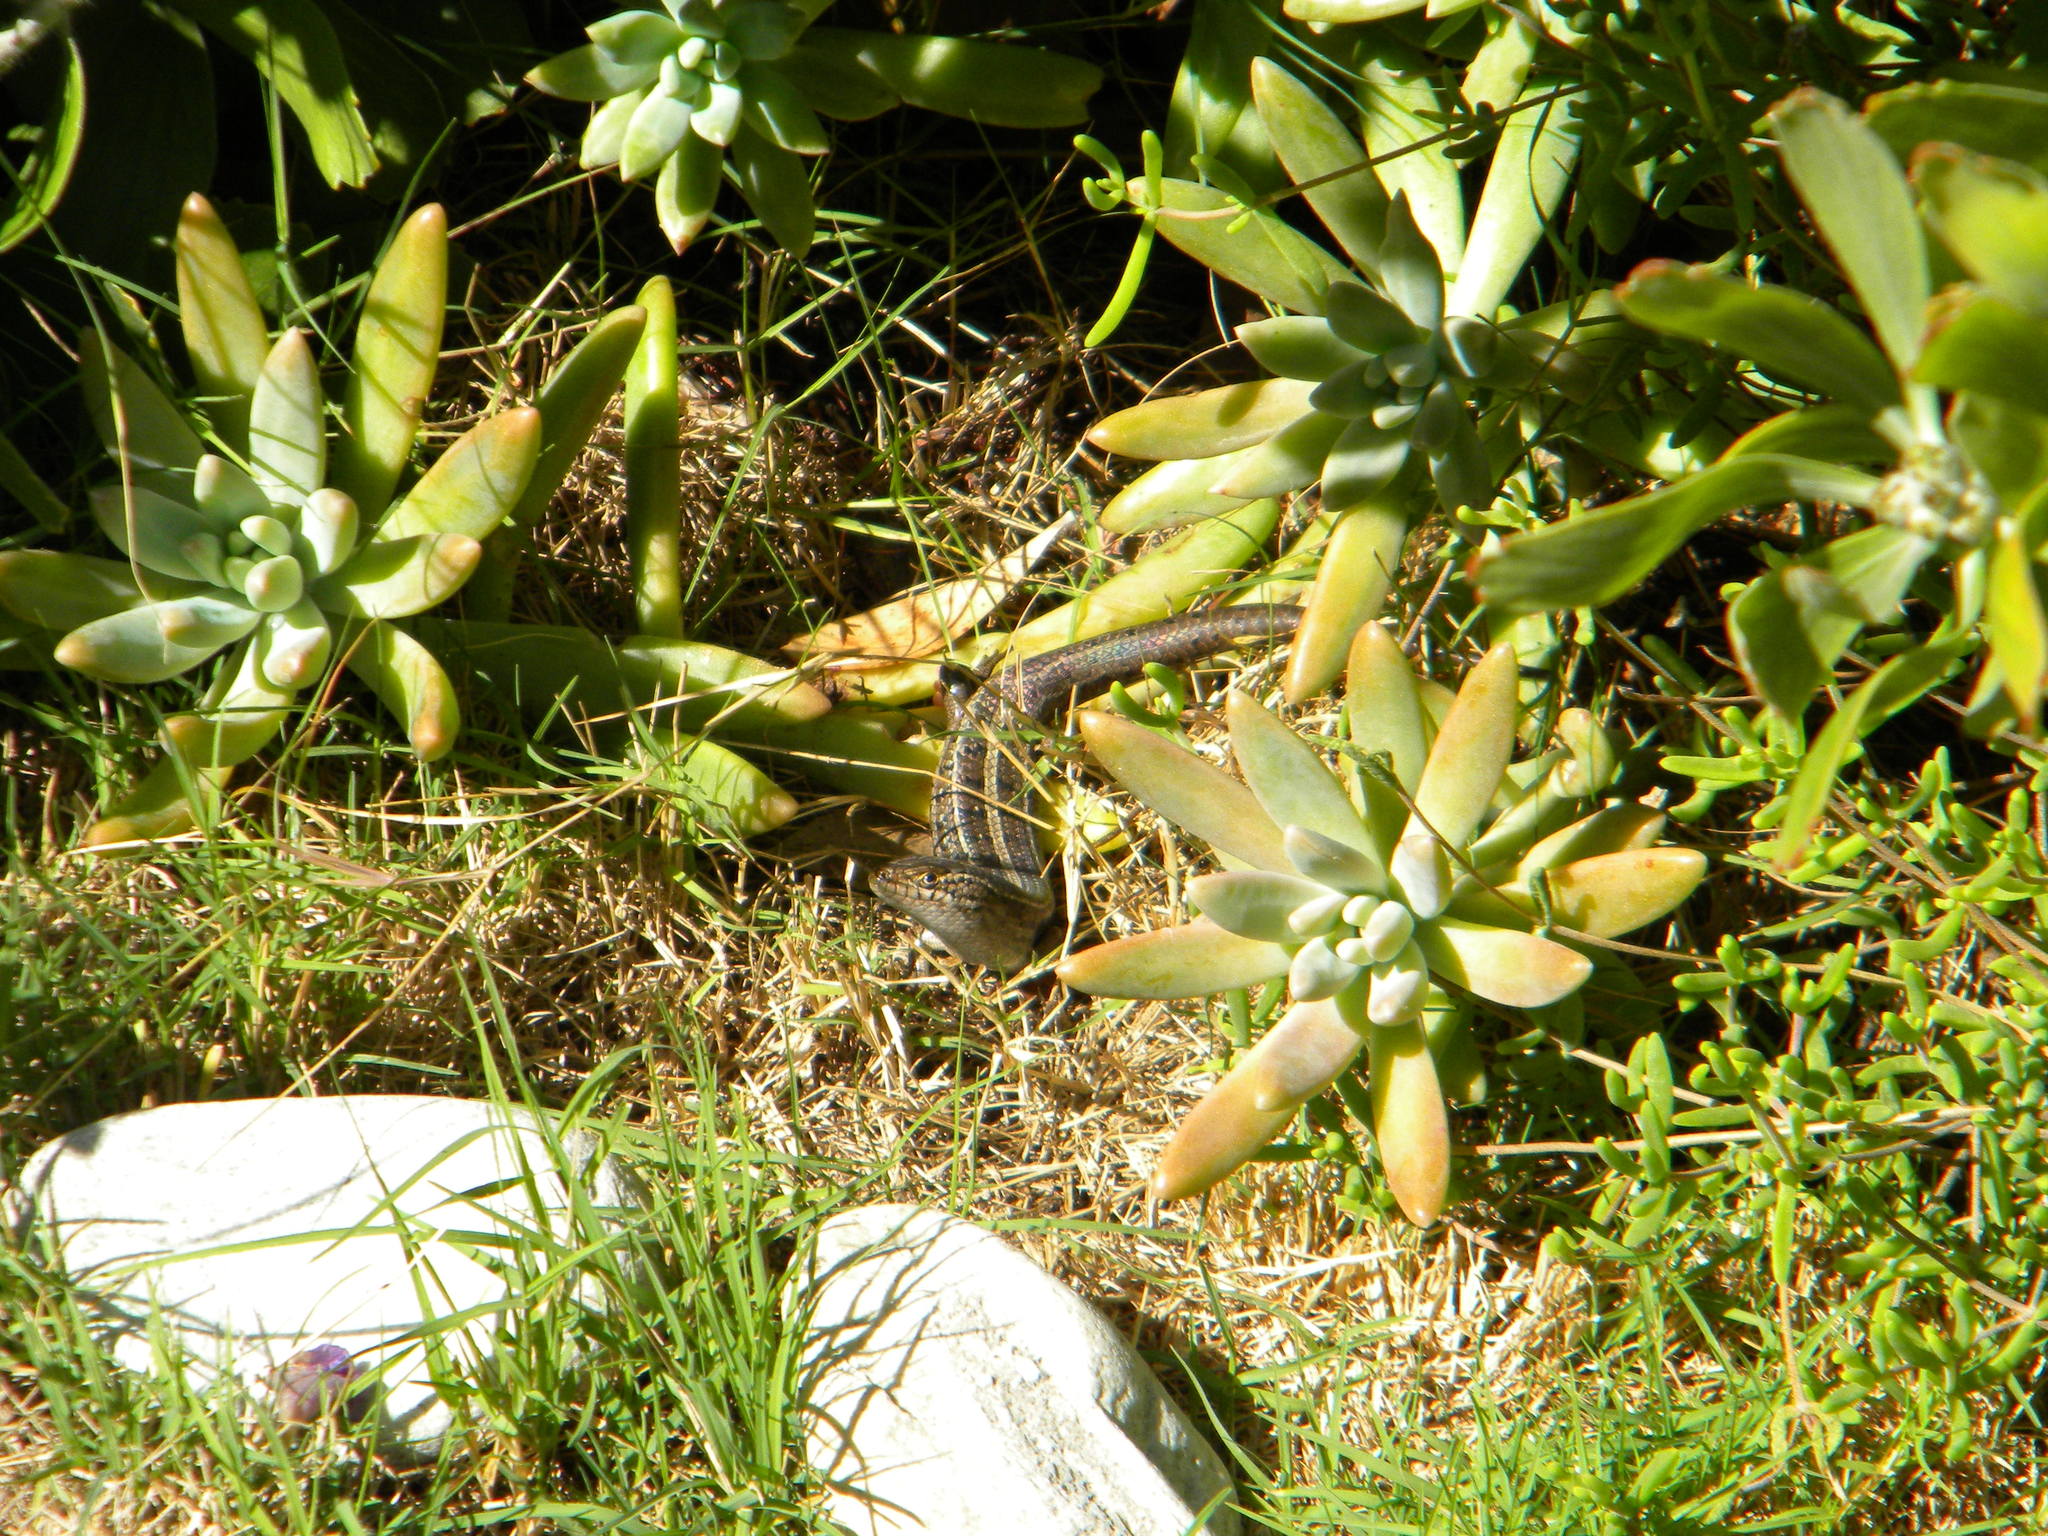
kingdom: Animalia
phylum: Chordata
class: Squamata
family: Scincidae
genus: Trachylepis
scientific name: Trachylepis capensis
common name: Cape skink
